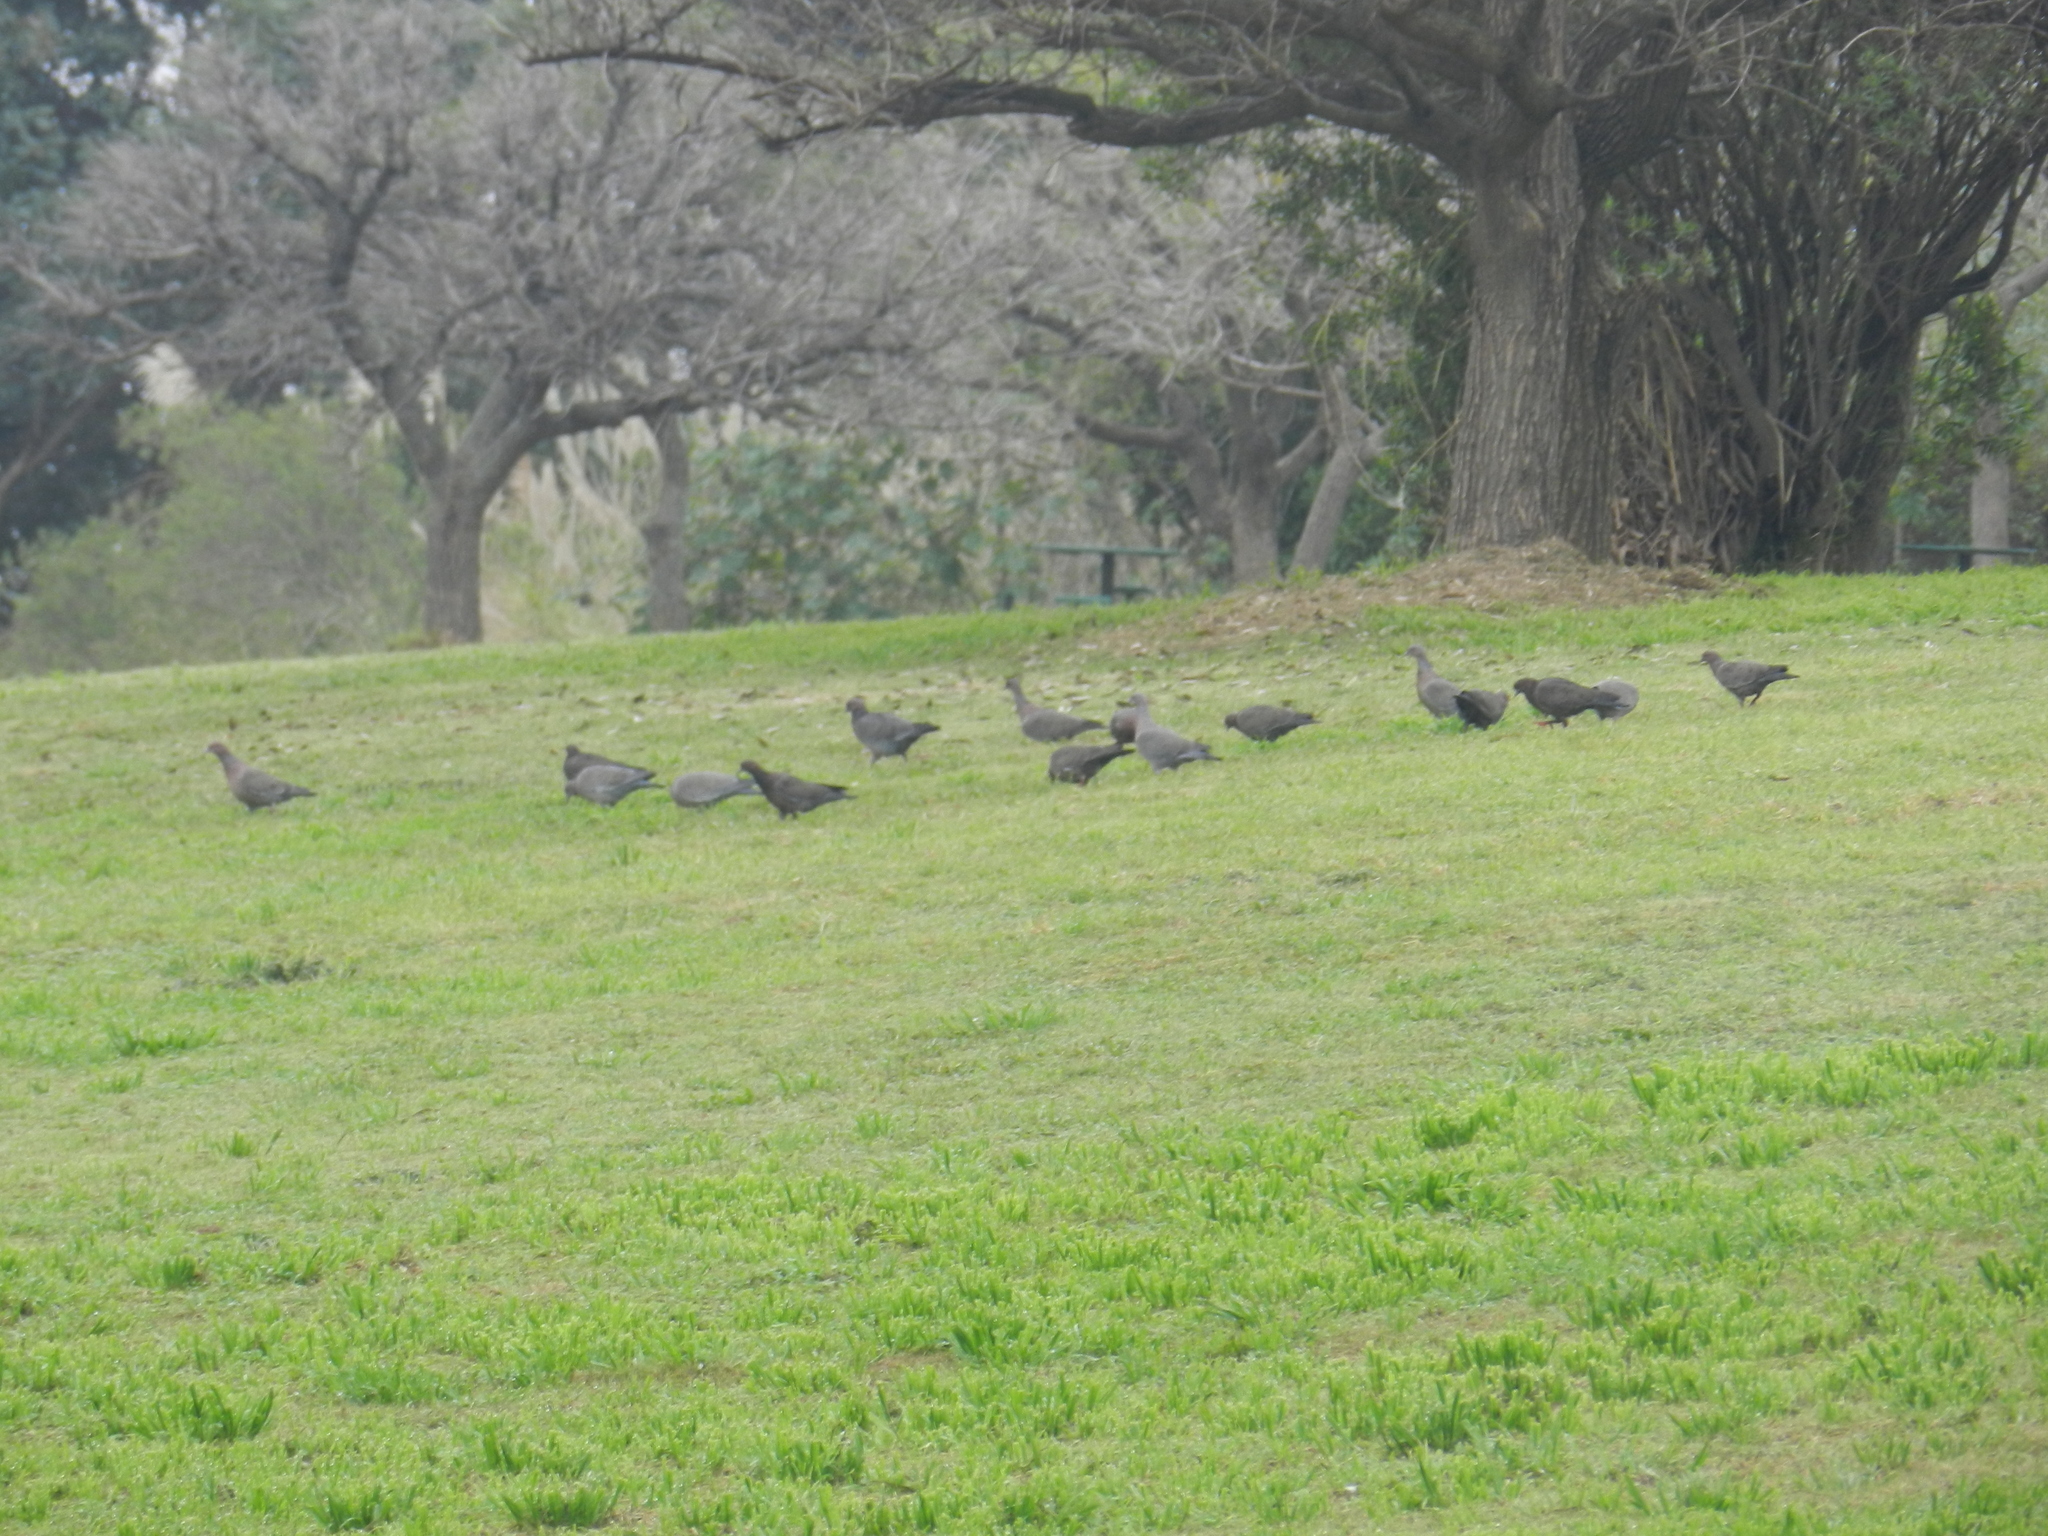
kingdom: Animalia
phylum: Chordata
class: Aves
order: Columbiformes
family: Columbidae
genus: Patagioenas
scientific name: Patagioenas picazuro
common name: Picazuro pigeon
